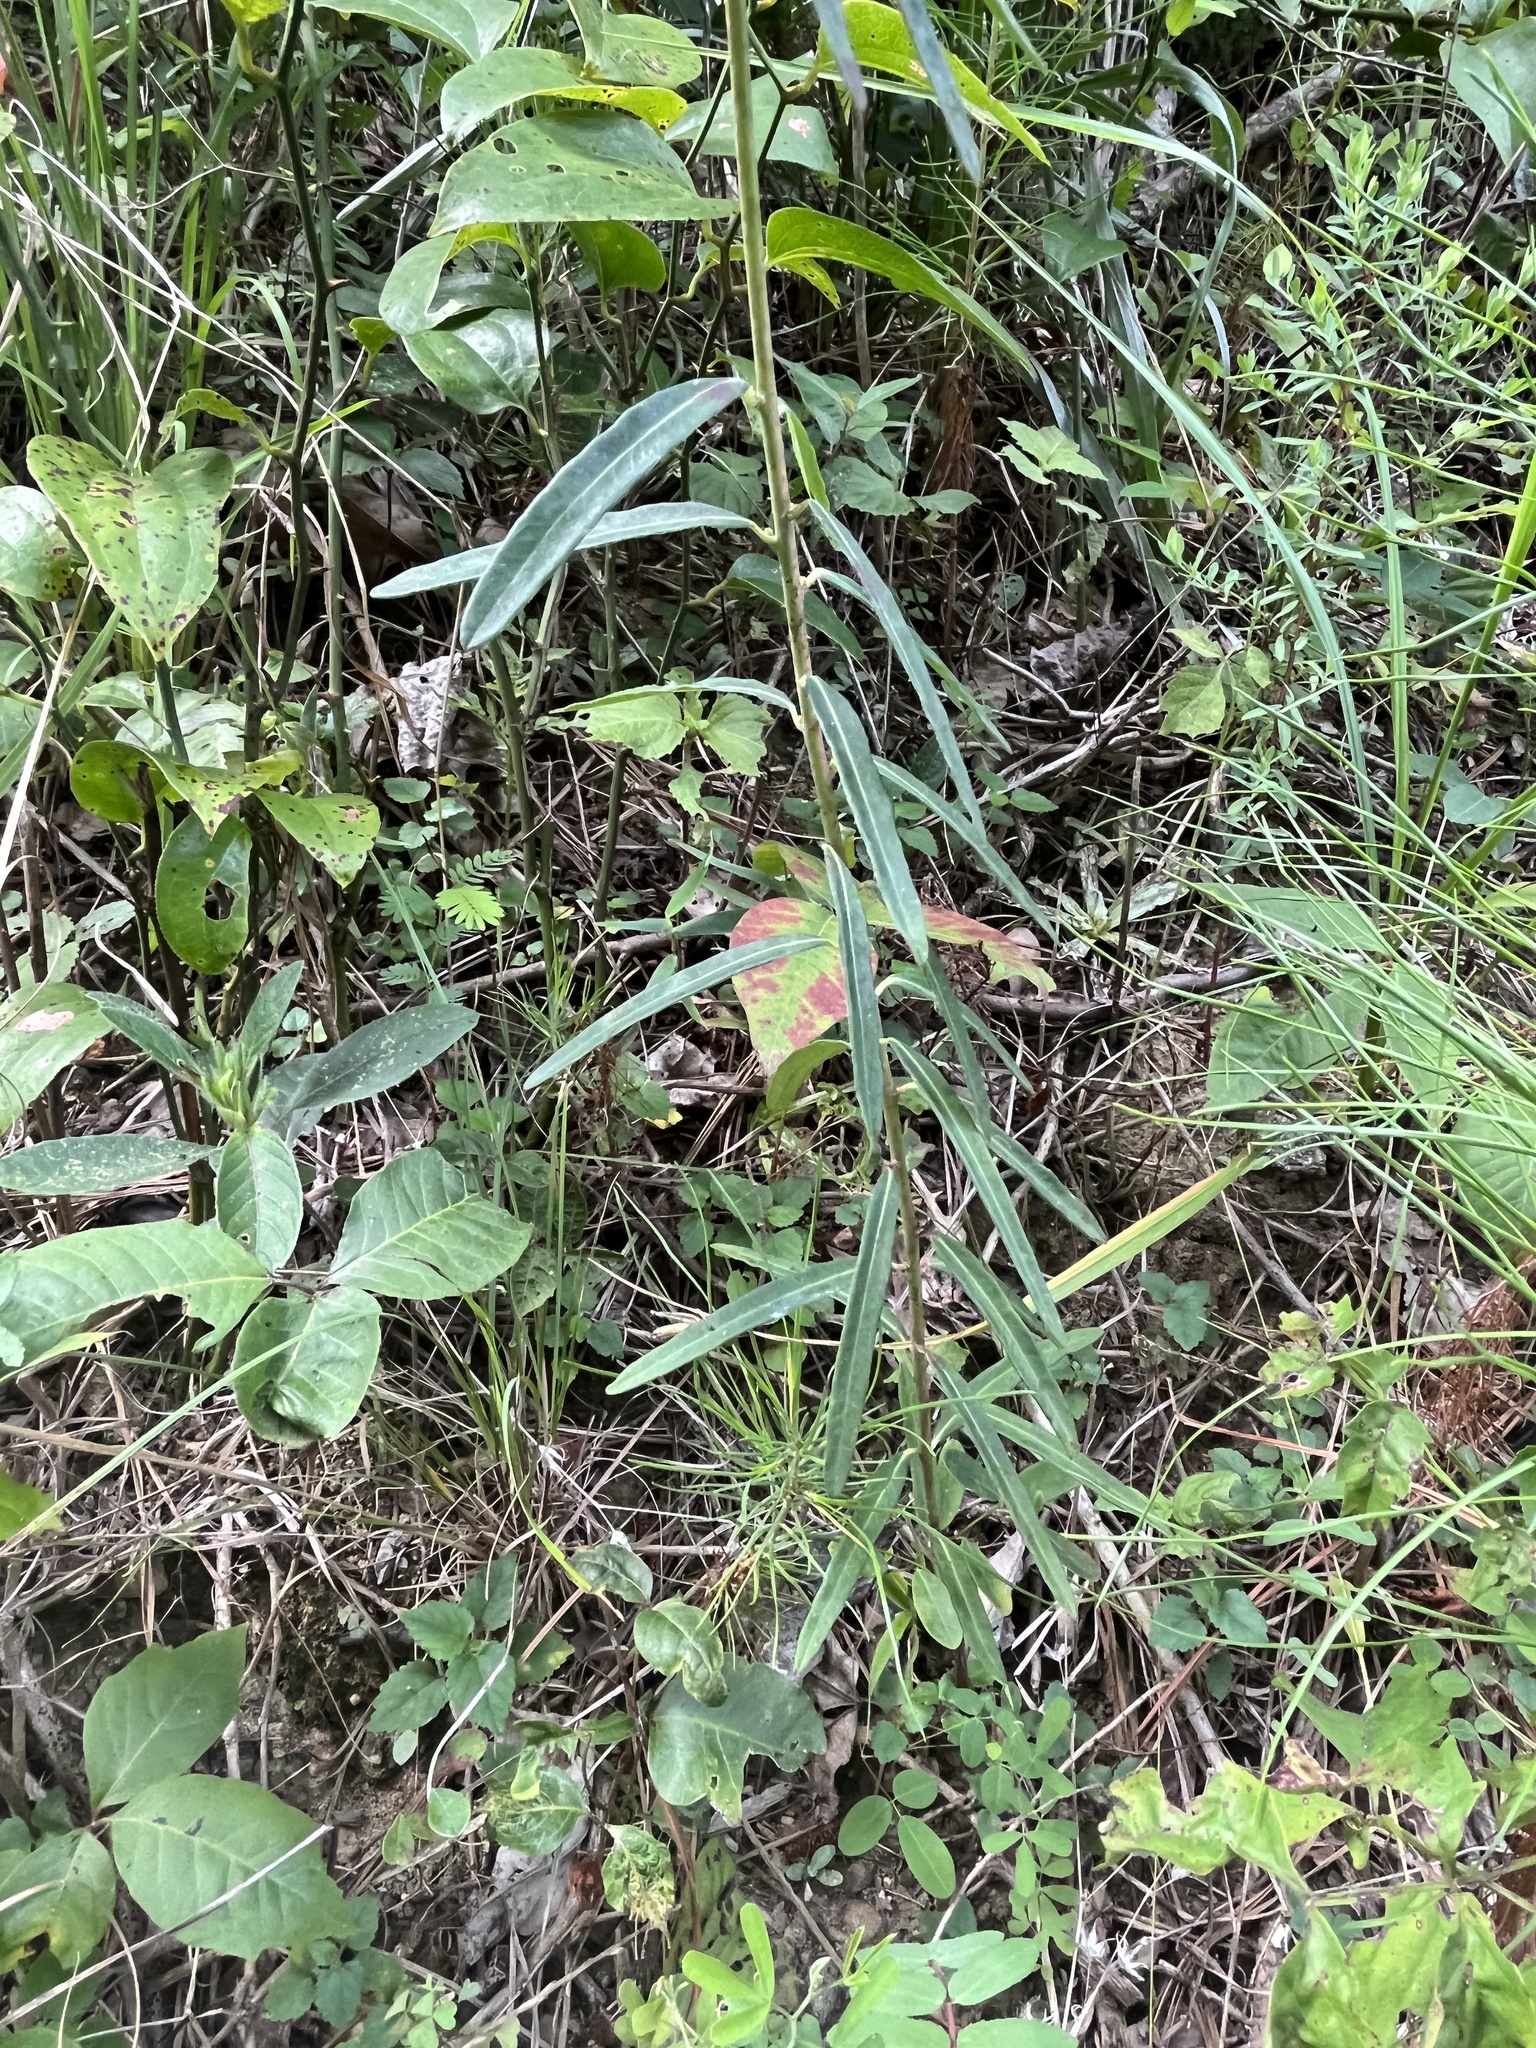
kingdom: Plantae
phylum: Tracheophyta
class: Magnoliopsida
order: Malpighiales
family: Euphorbiaceae
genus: Euphorbia
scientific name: Euphorbia corollata
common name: Flowering spurge
